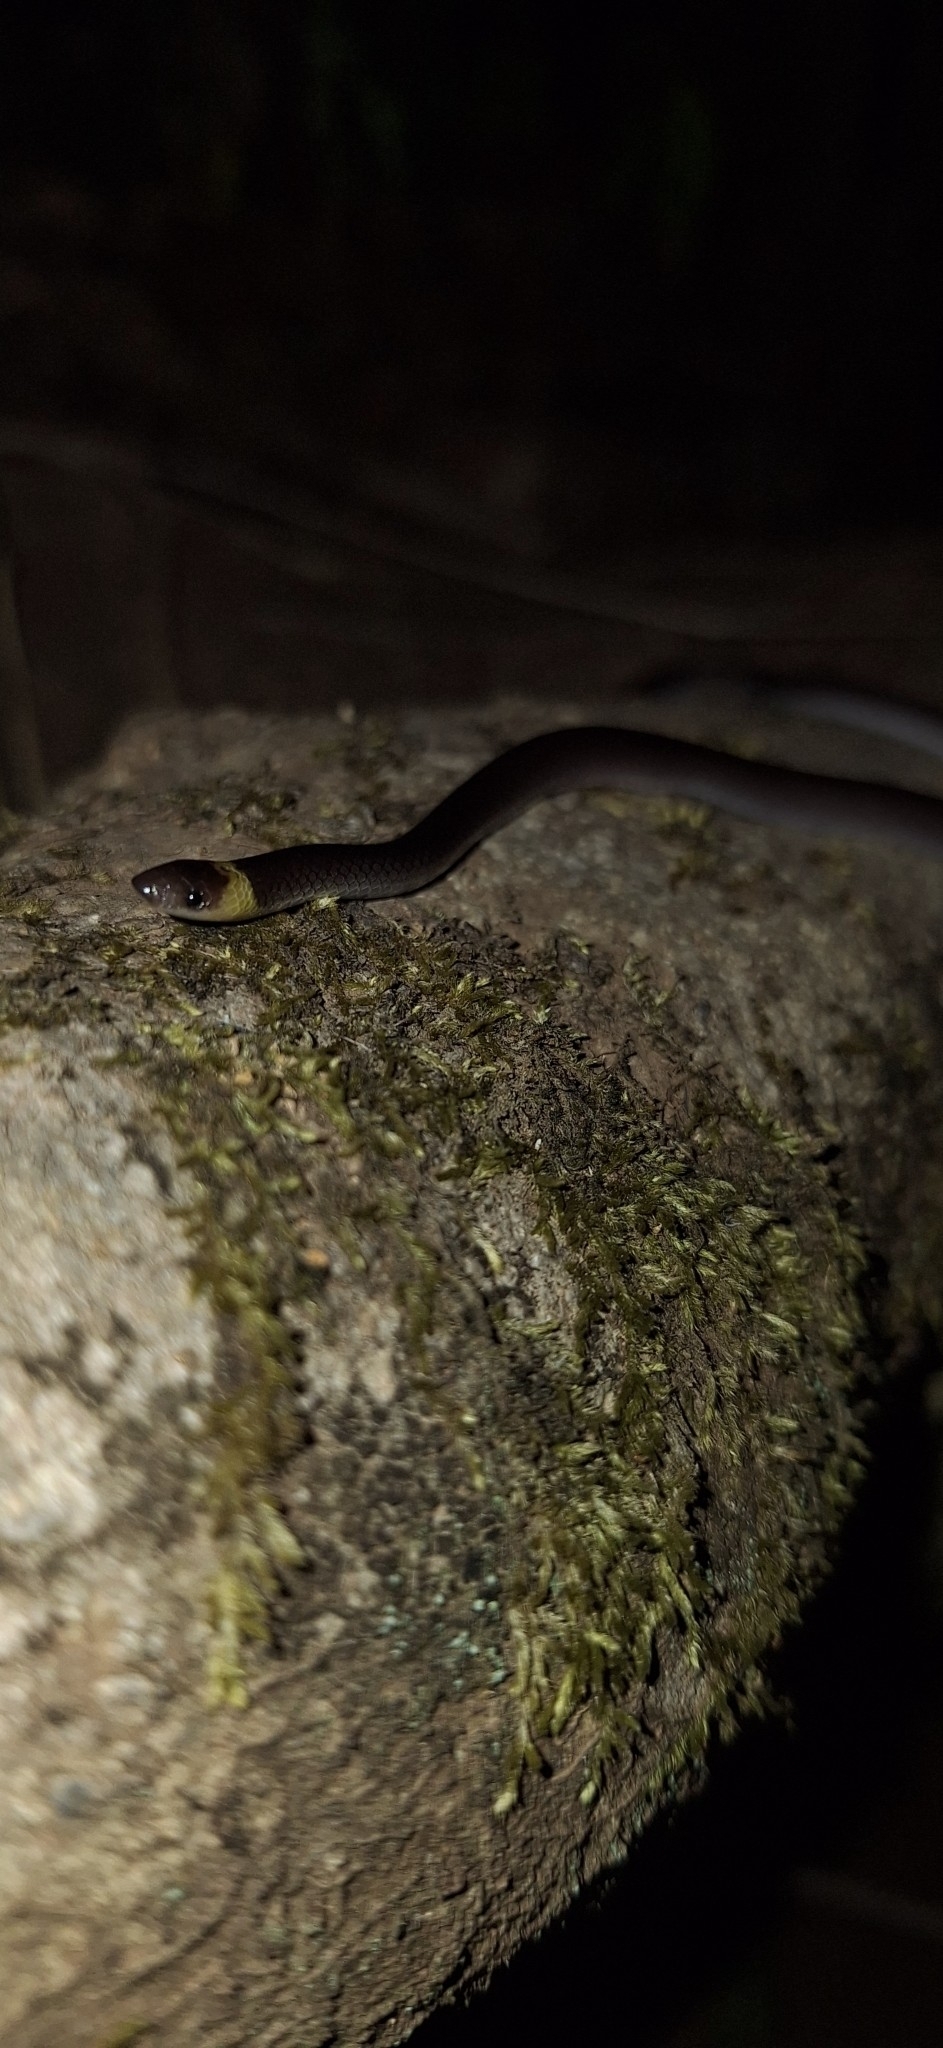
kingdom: Animalia
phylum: Chordata
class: Squamata
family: Colubridae
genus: Enulius
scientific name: Enulius flavitorques
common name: Pacific longtail snake
